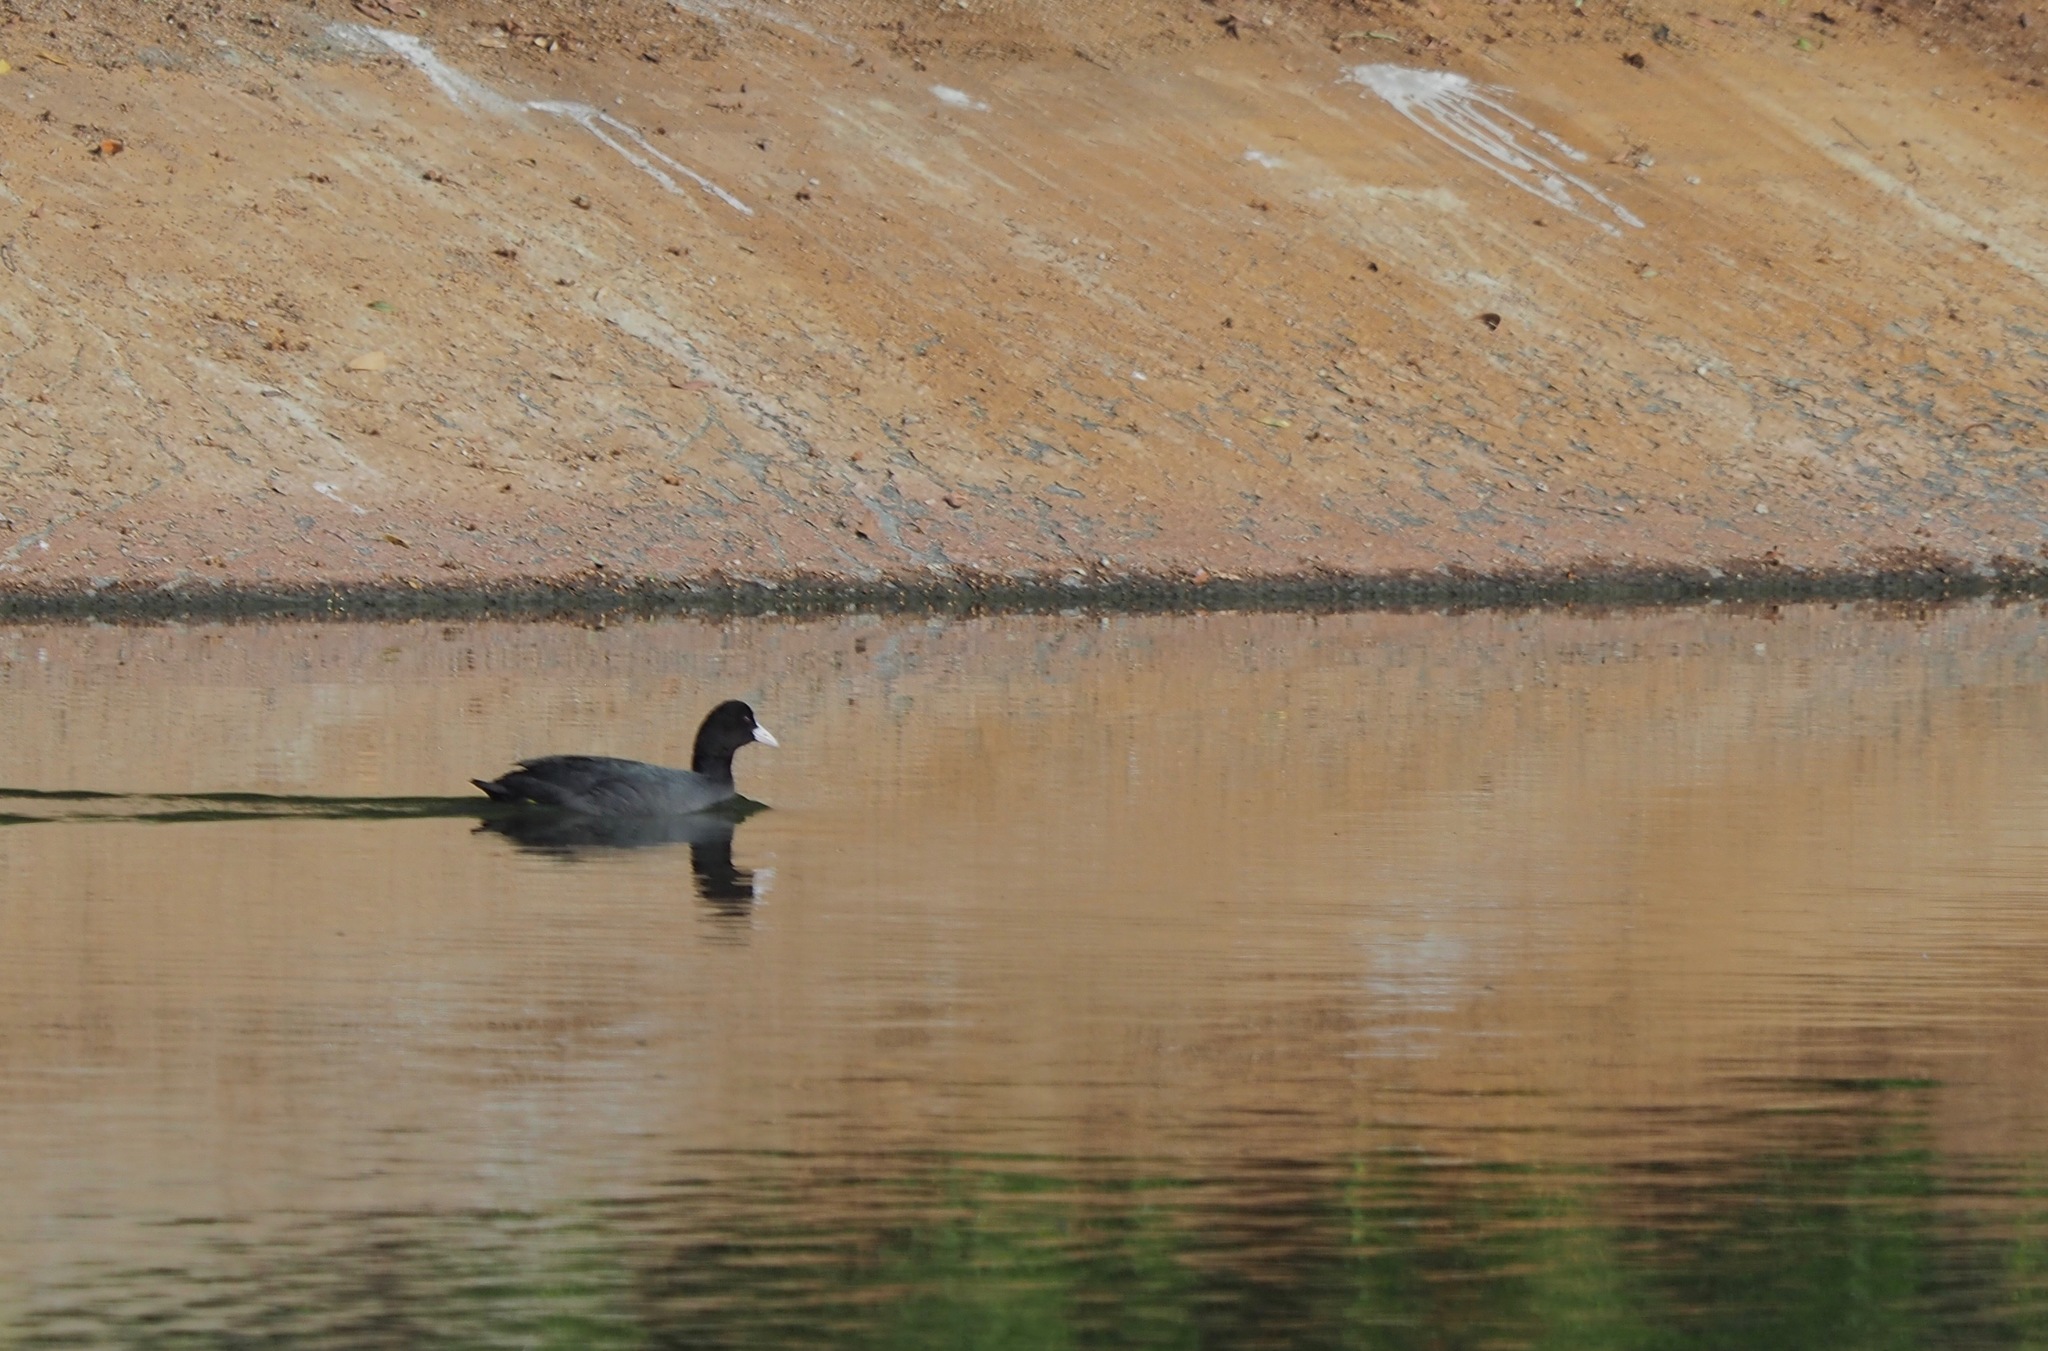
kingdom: Animalia
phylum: Chordata
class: Aves
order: Gruiformes
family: Rallidae
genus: Fulica
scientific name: Fulica atra
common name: Eurasian coot
